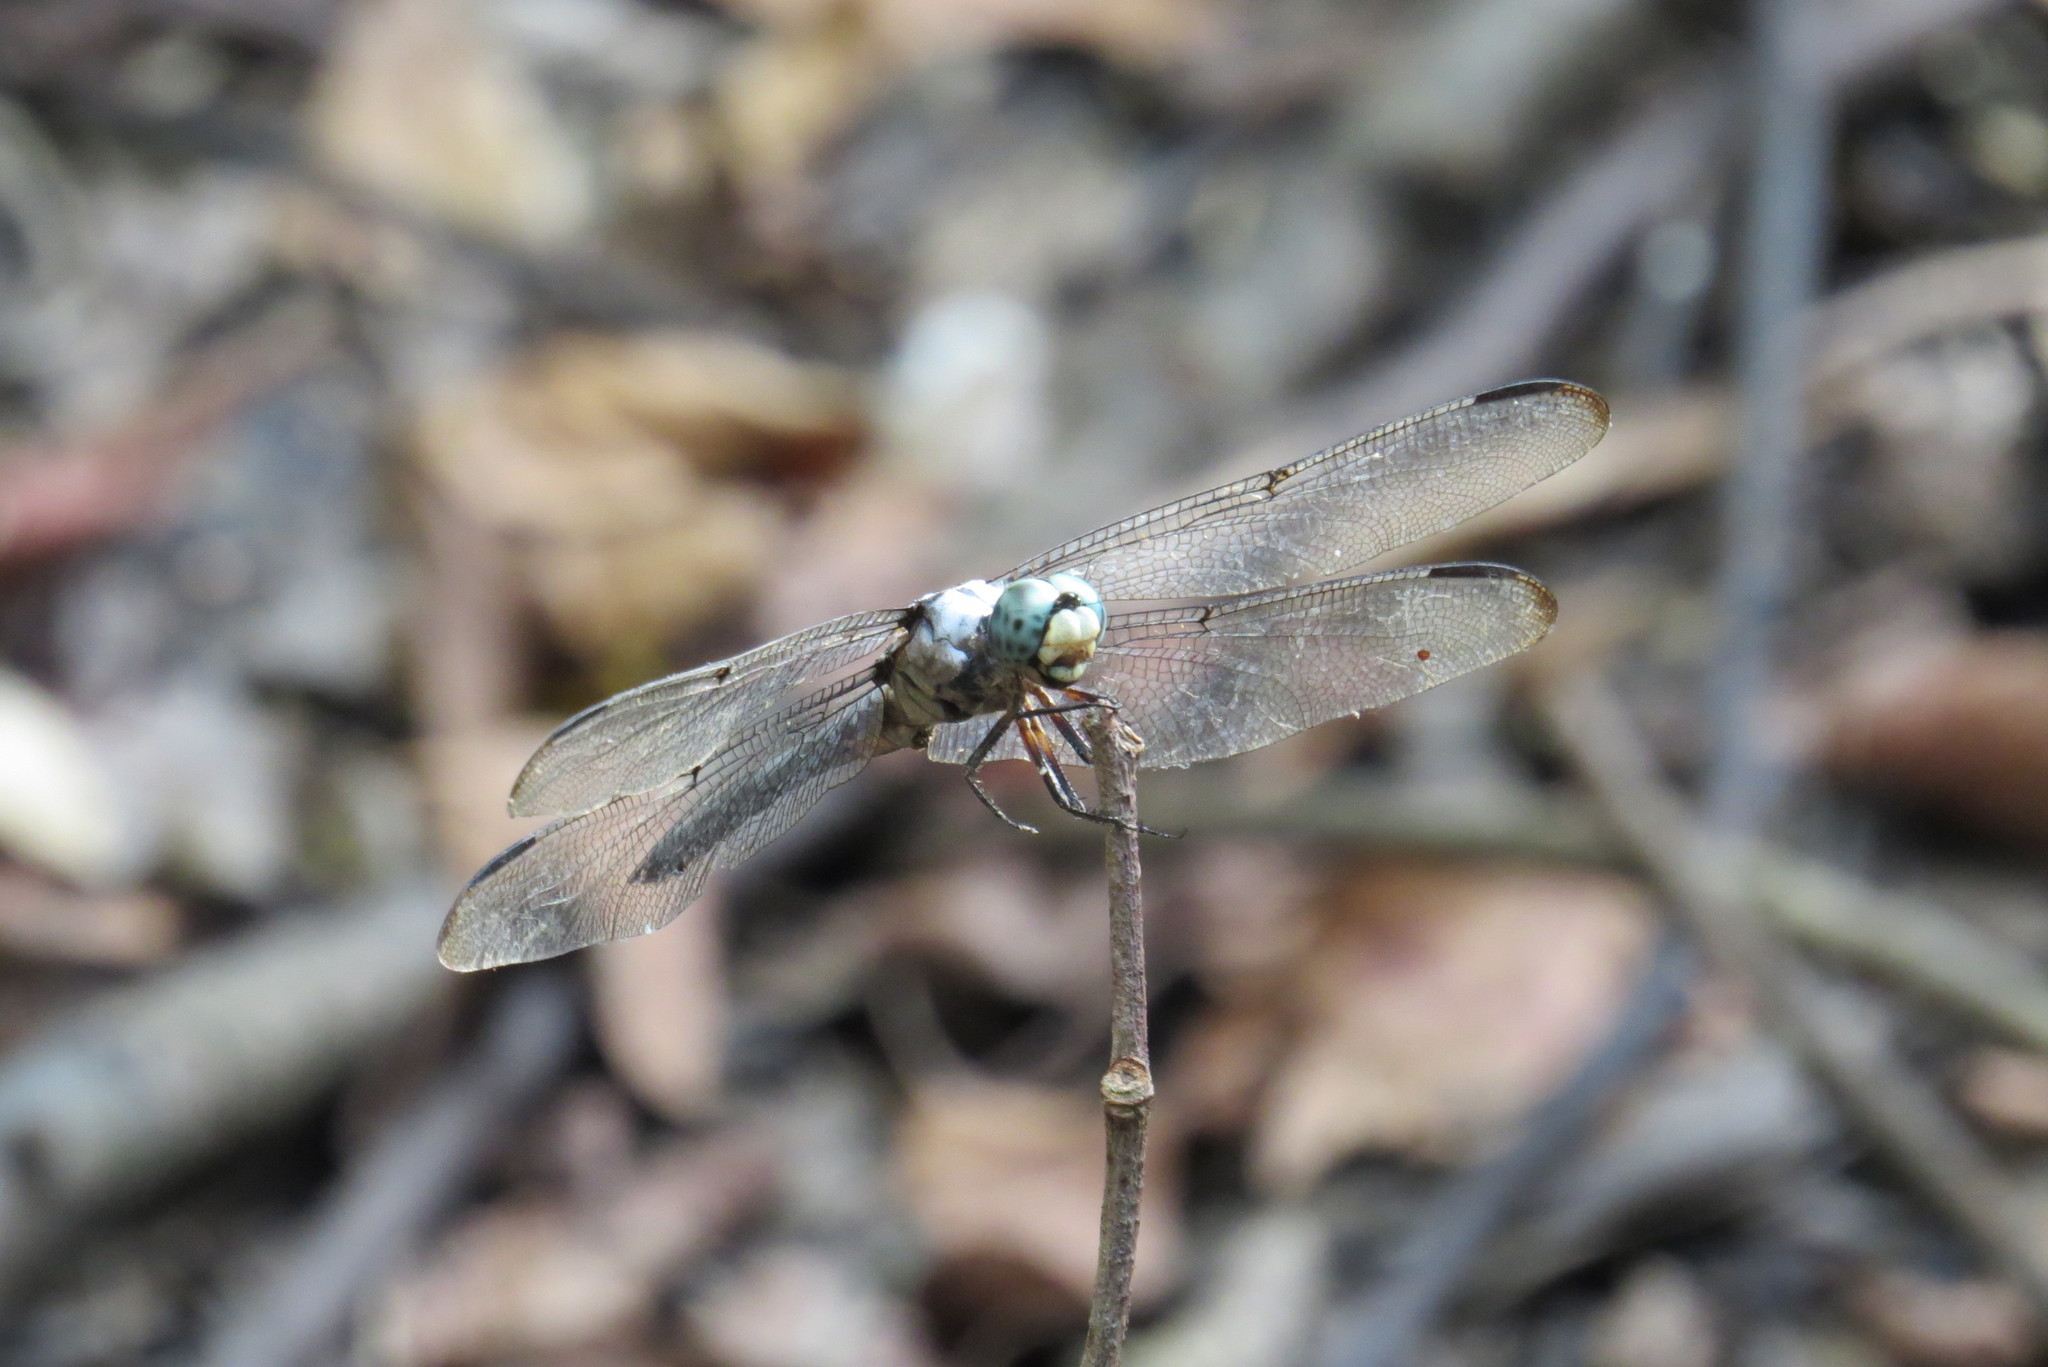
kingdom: Animalia
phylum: Arthropoda
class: Insecta
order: Odonata
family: Libellulidae
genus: Libellula
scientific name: Libellula vibrans
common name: Great blue skimmer
